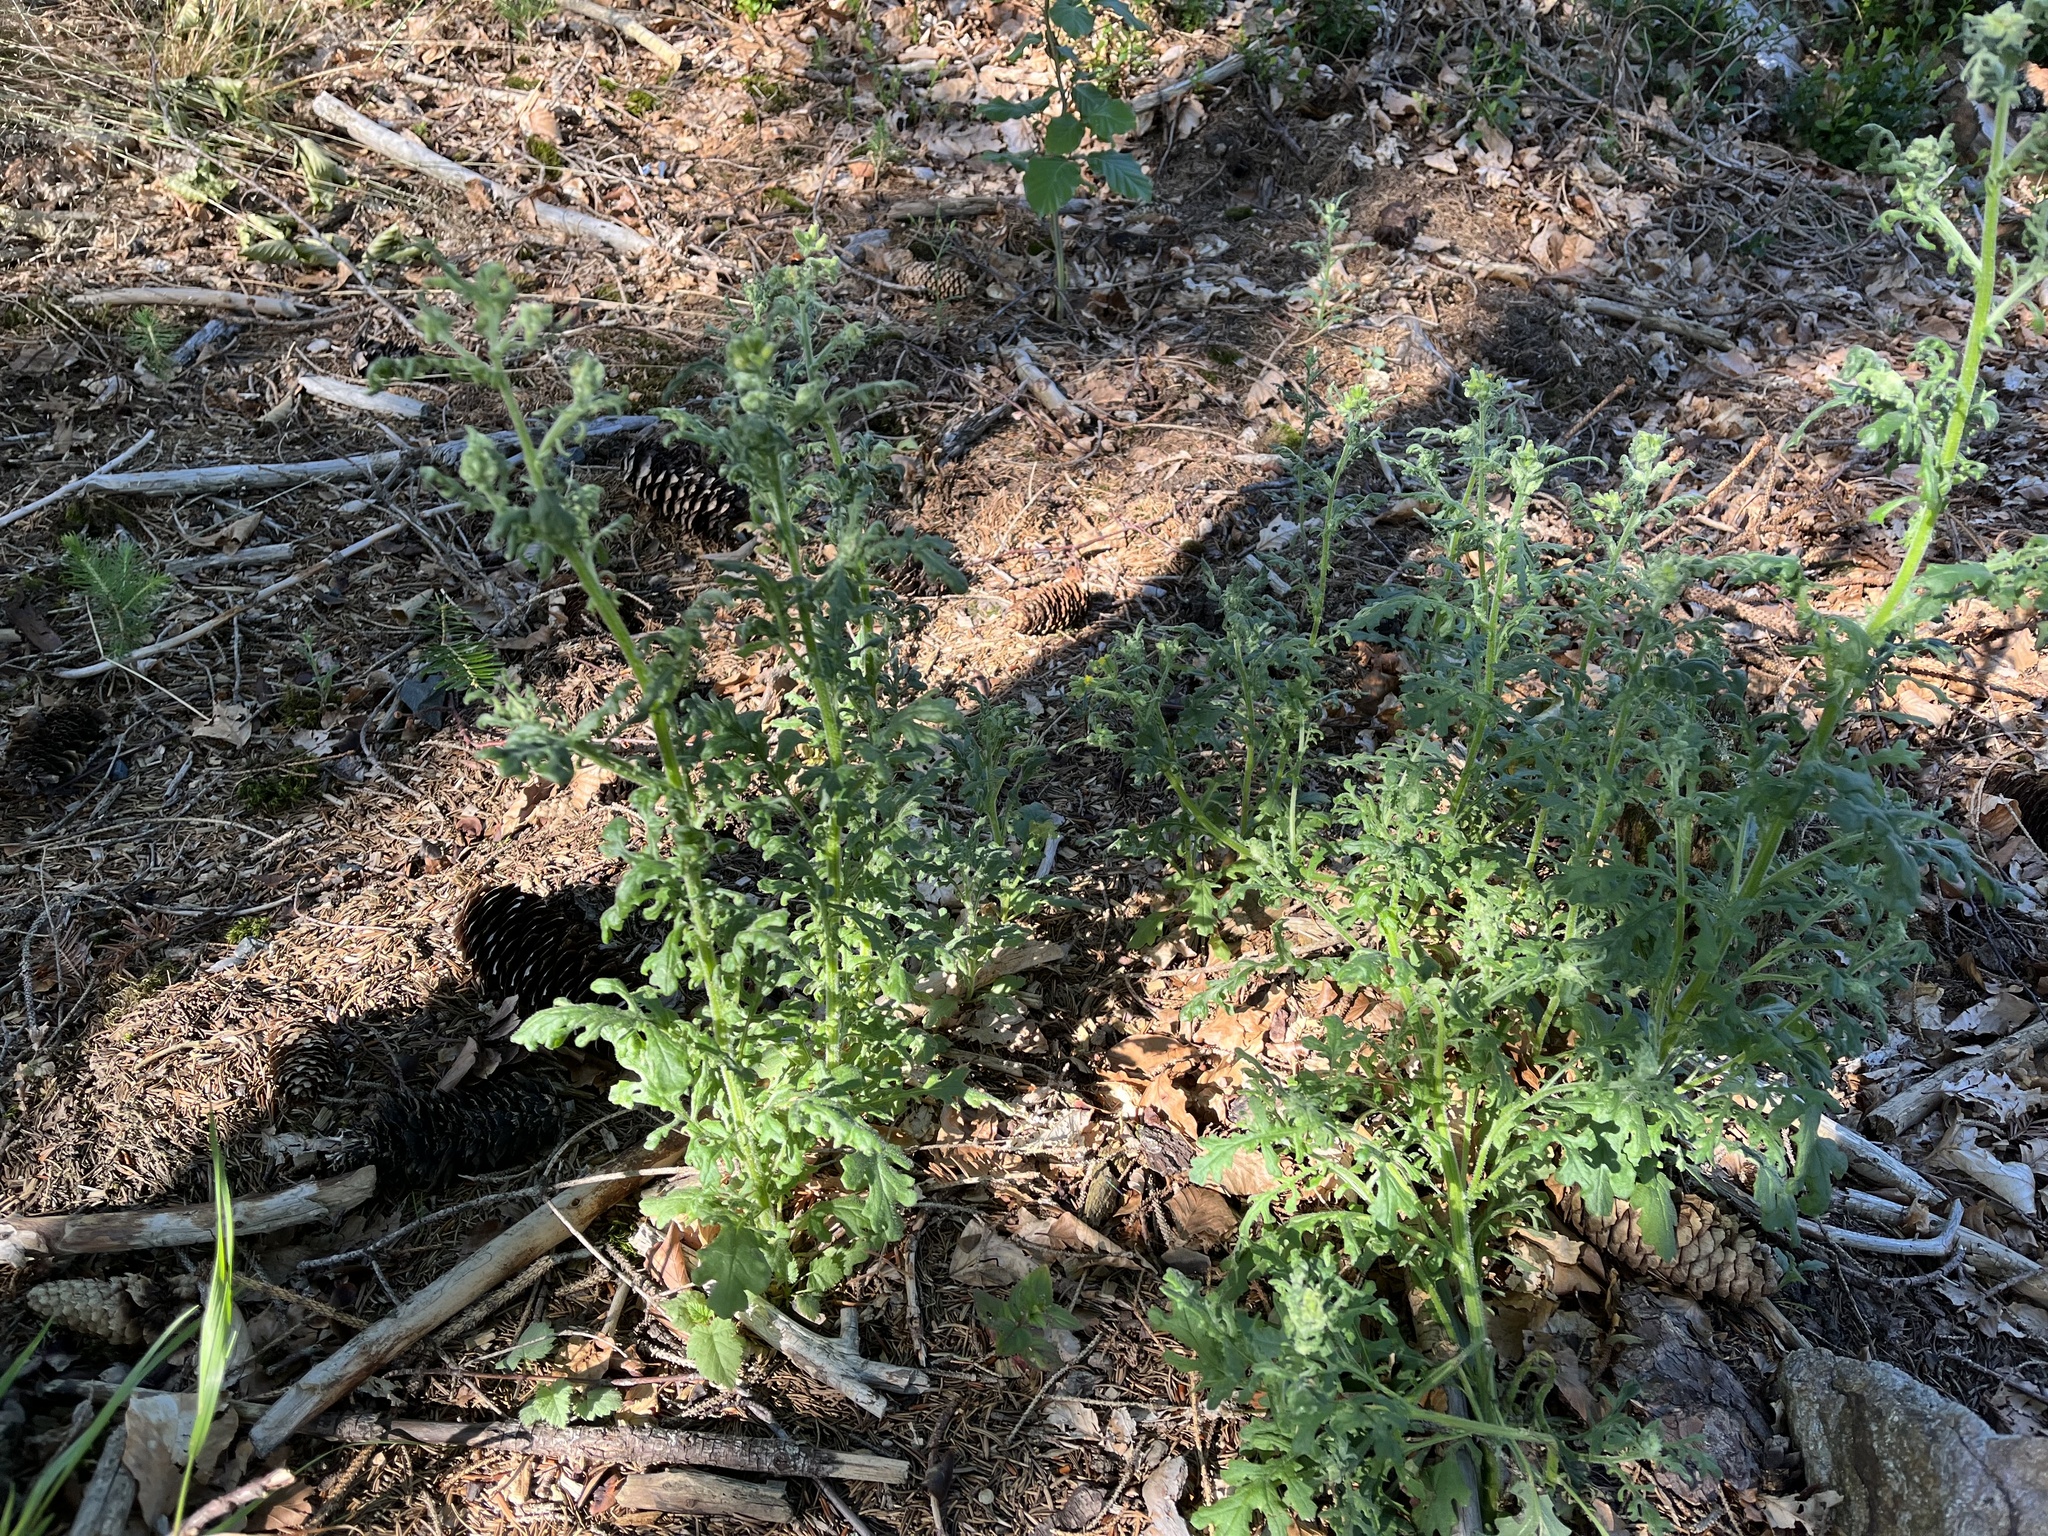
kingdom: Plantae
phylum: Tracheophyta
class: Magnoliopsida
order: Asterales
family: Asteraceae
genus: Senecio
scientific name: Senecio sylvaticus
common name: Woodland ragwort
